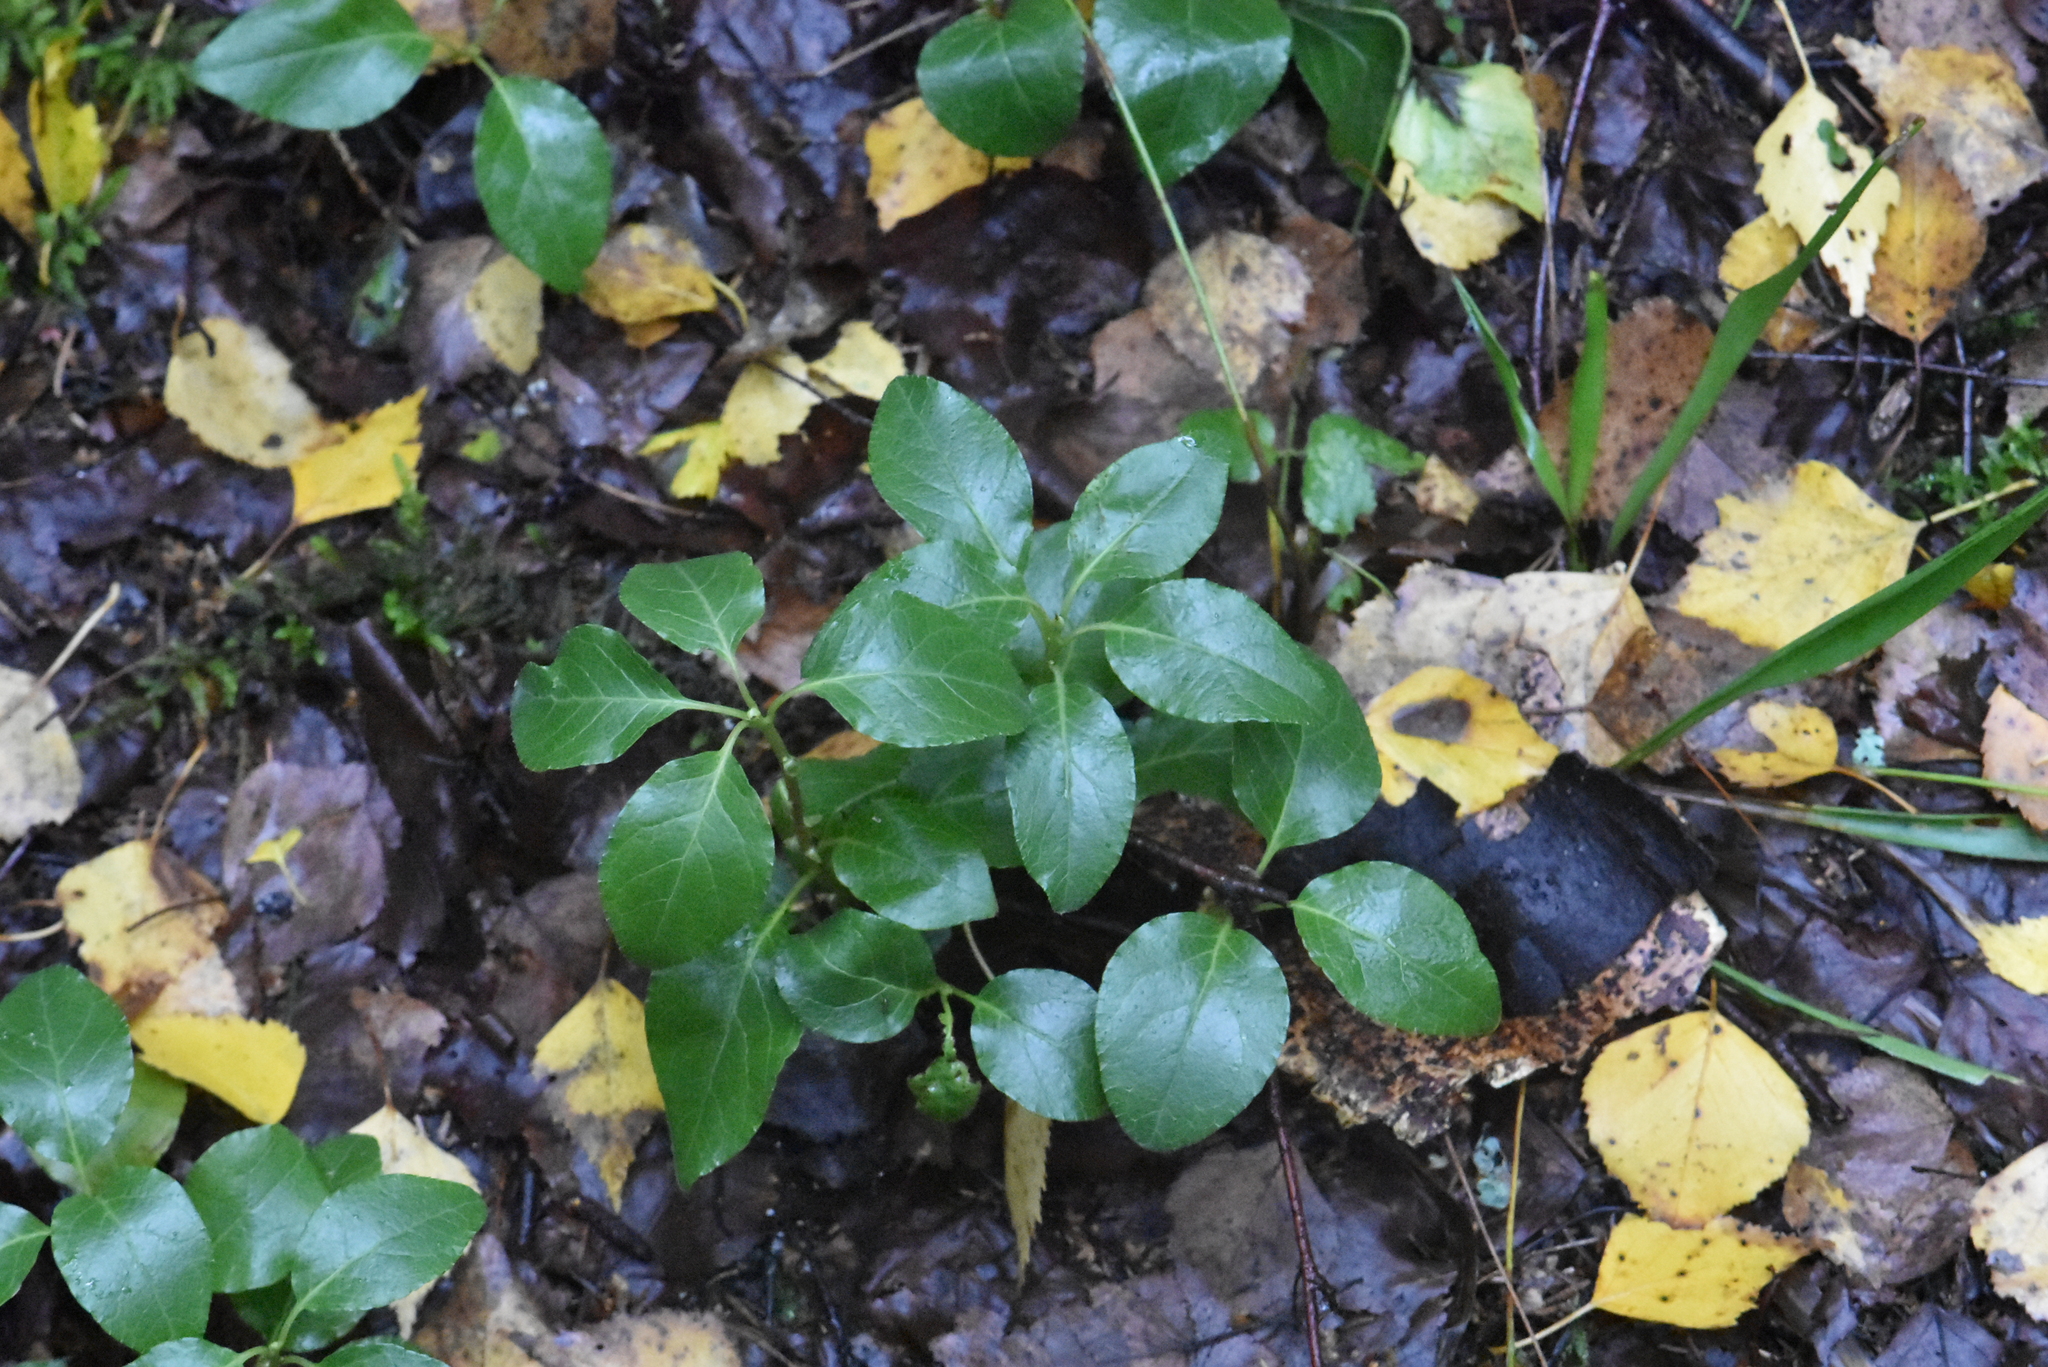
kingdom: Plantae
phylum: Tracheophyta
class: Magnoliopsida
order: Ericales
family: Ericaceae
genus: Orthilia
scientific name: Orthilia secunda
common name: One-sided orthilia
